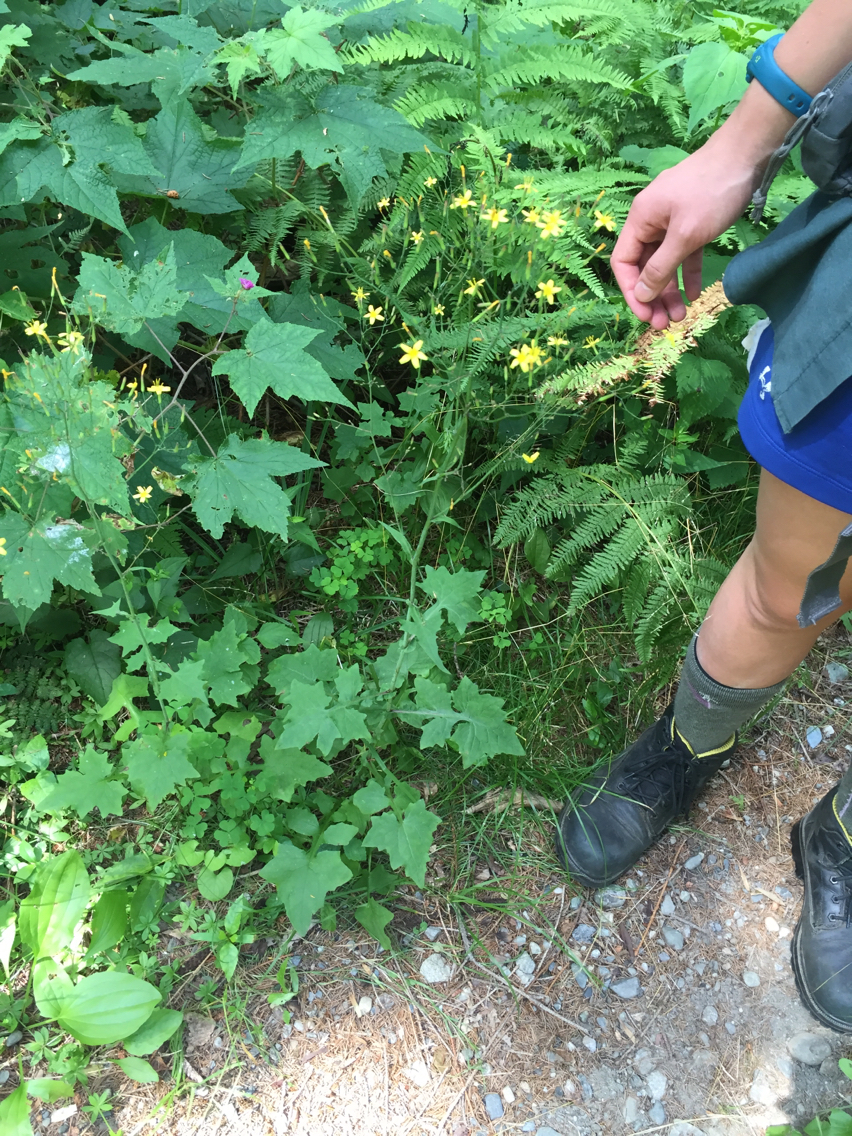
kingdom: Plantae
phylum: Tracheophyta
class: Magnoliopsida
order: Asterales
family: Asteraceae
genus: Mycelis
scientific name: Mycelis muralis
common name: Wall lettuce
